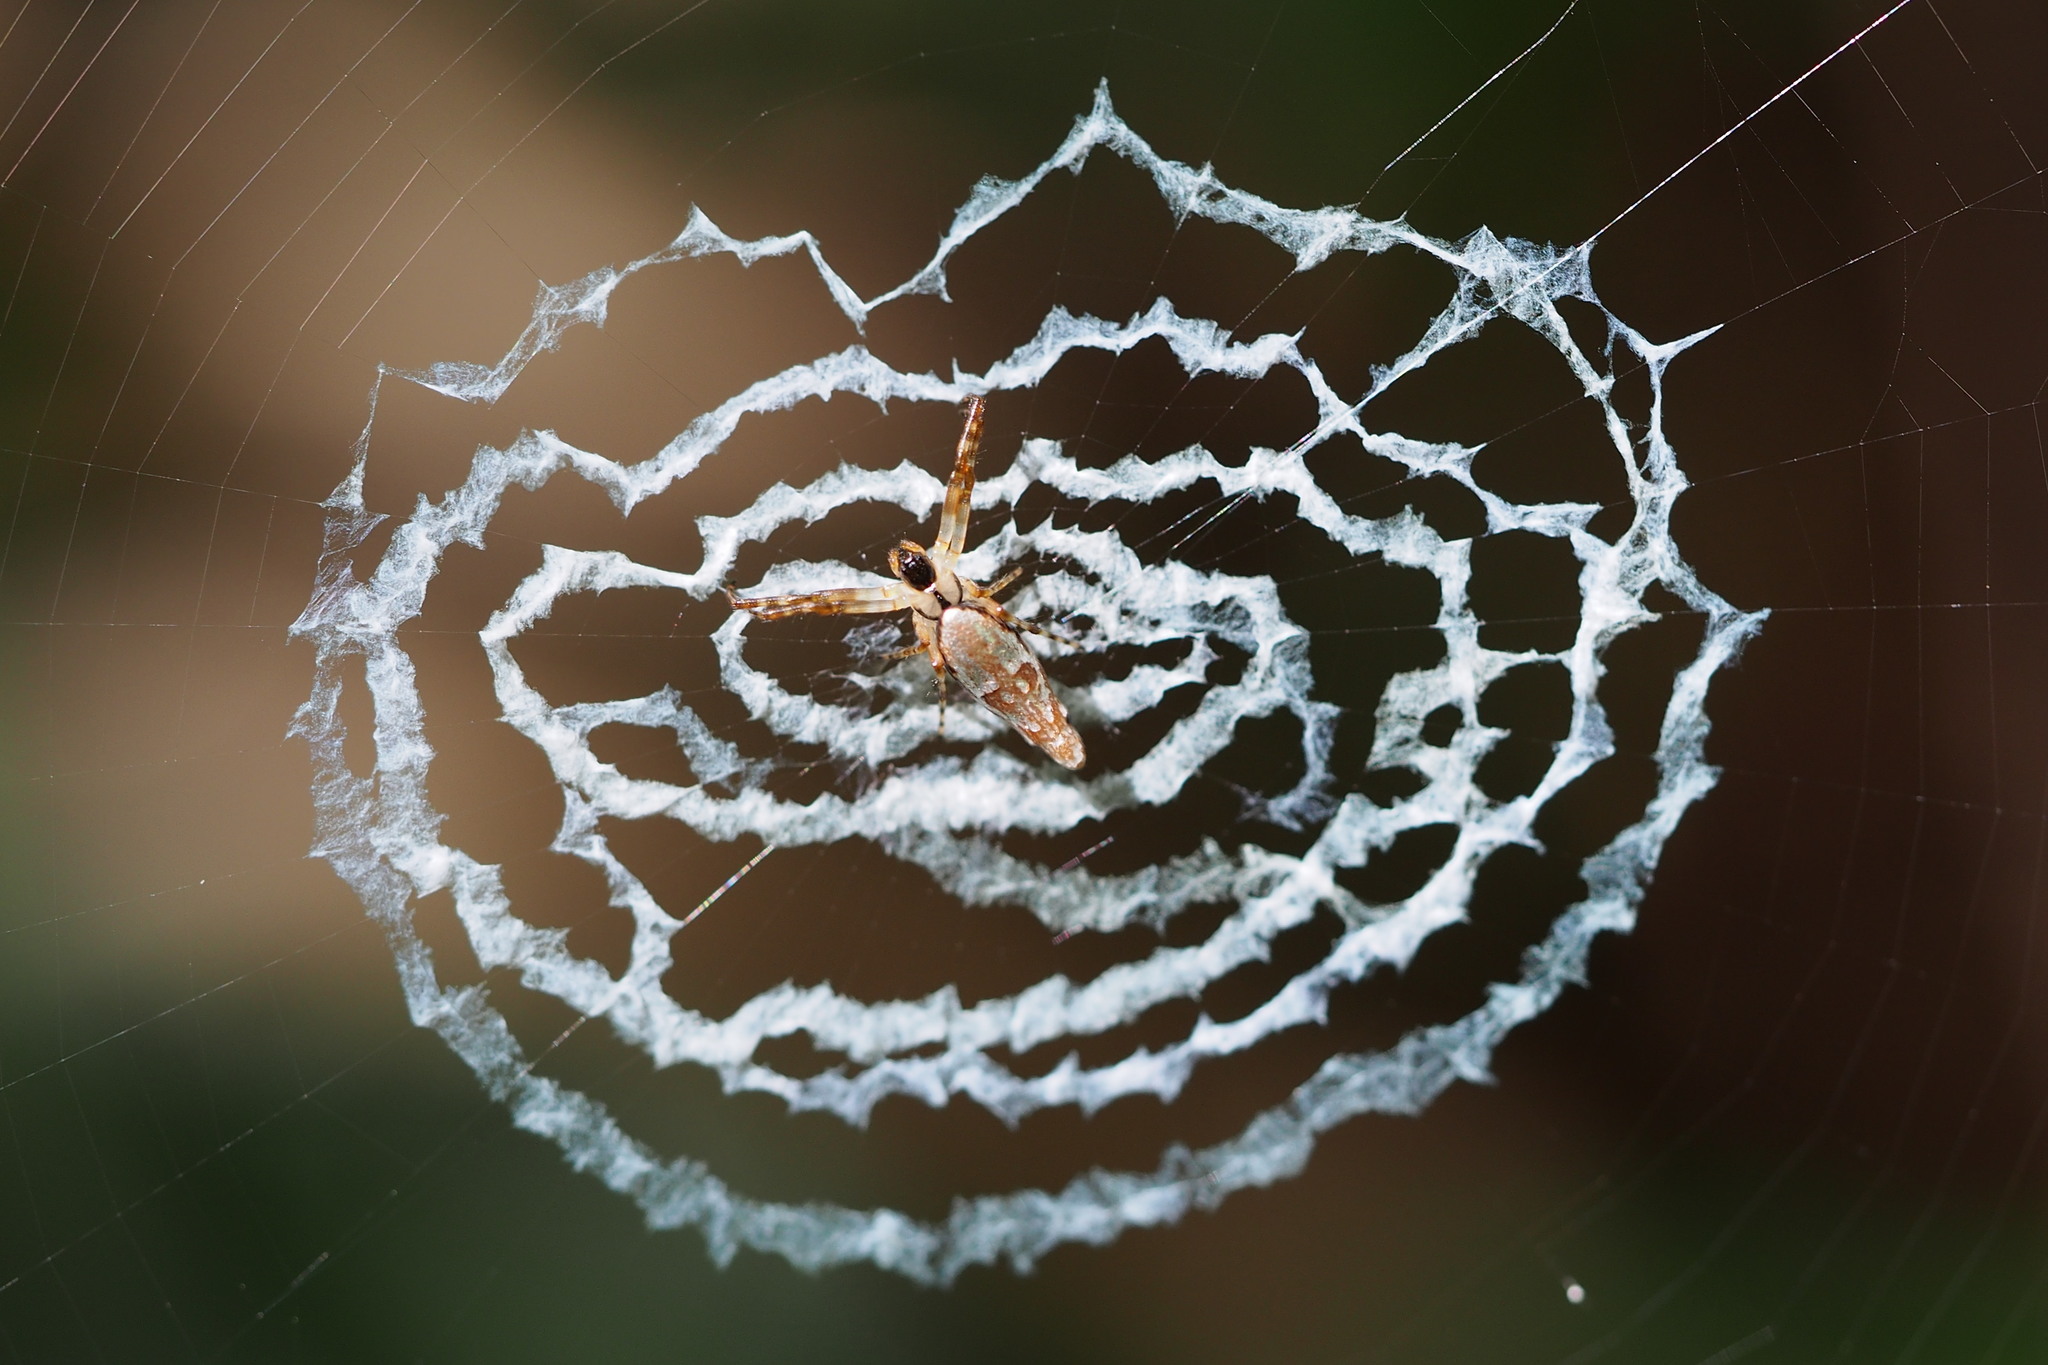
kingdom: Animalia
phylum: Arthropoda
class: Arachnida
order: Araneae
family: Araneidae
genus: Cyclosa
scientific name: Cyclosa ginnaga
